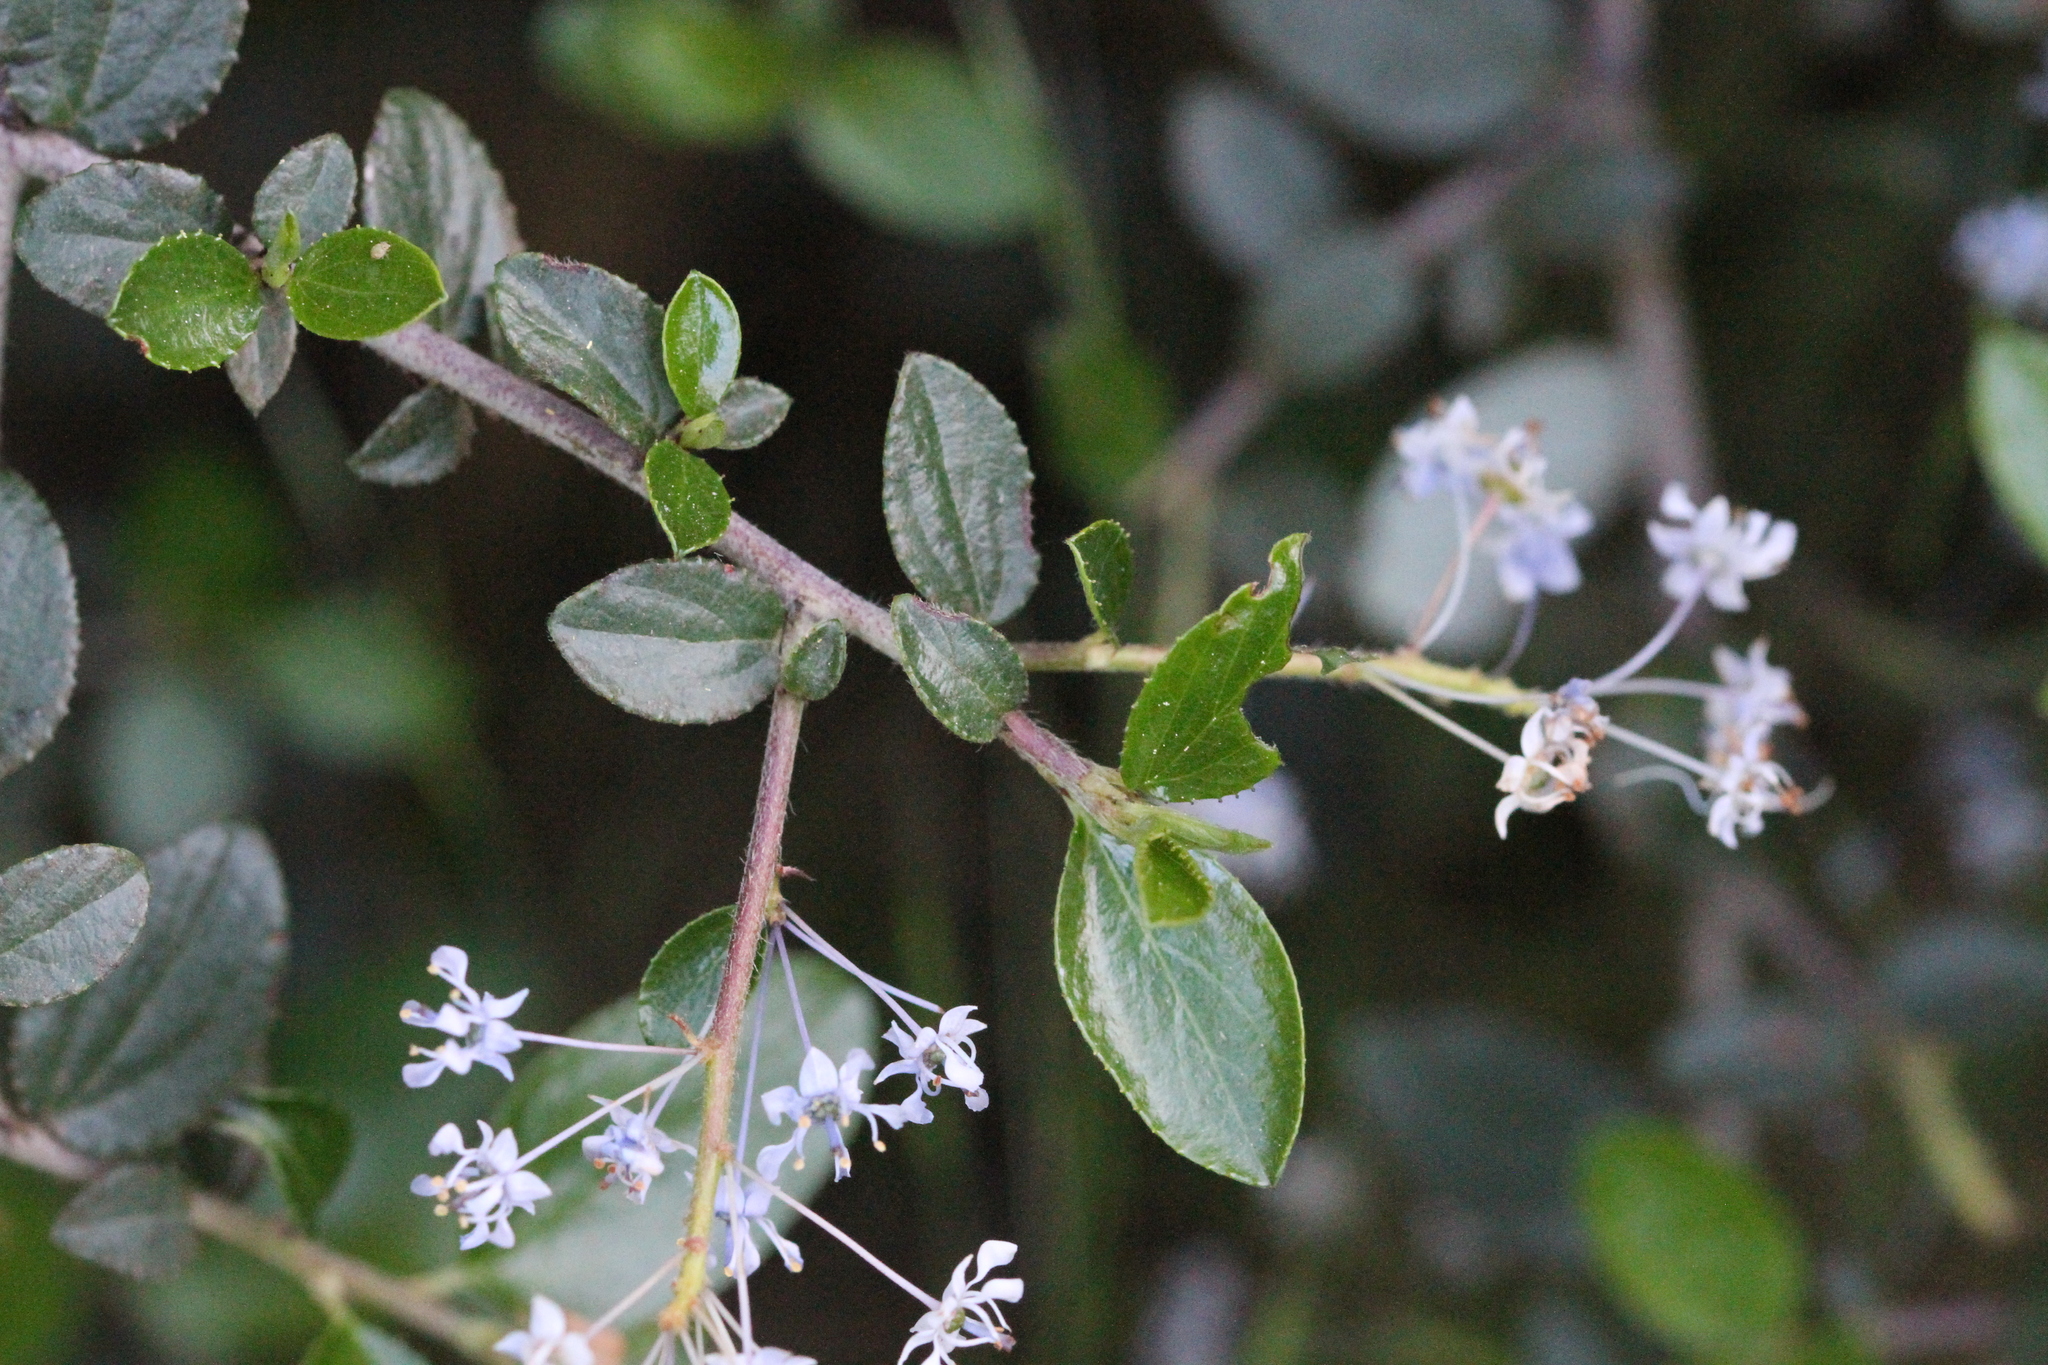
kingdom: Plantae
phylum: Tracheophyta
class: Magnoliopsida
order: Rosales
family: Rhamnaceae
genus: Ceanothus
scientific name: Ceanothus oliganthus
